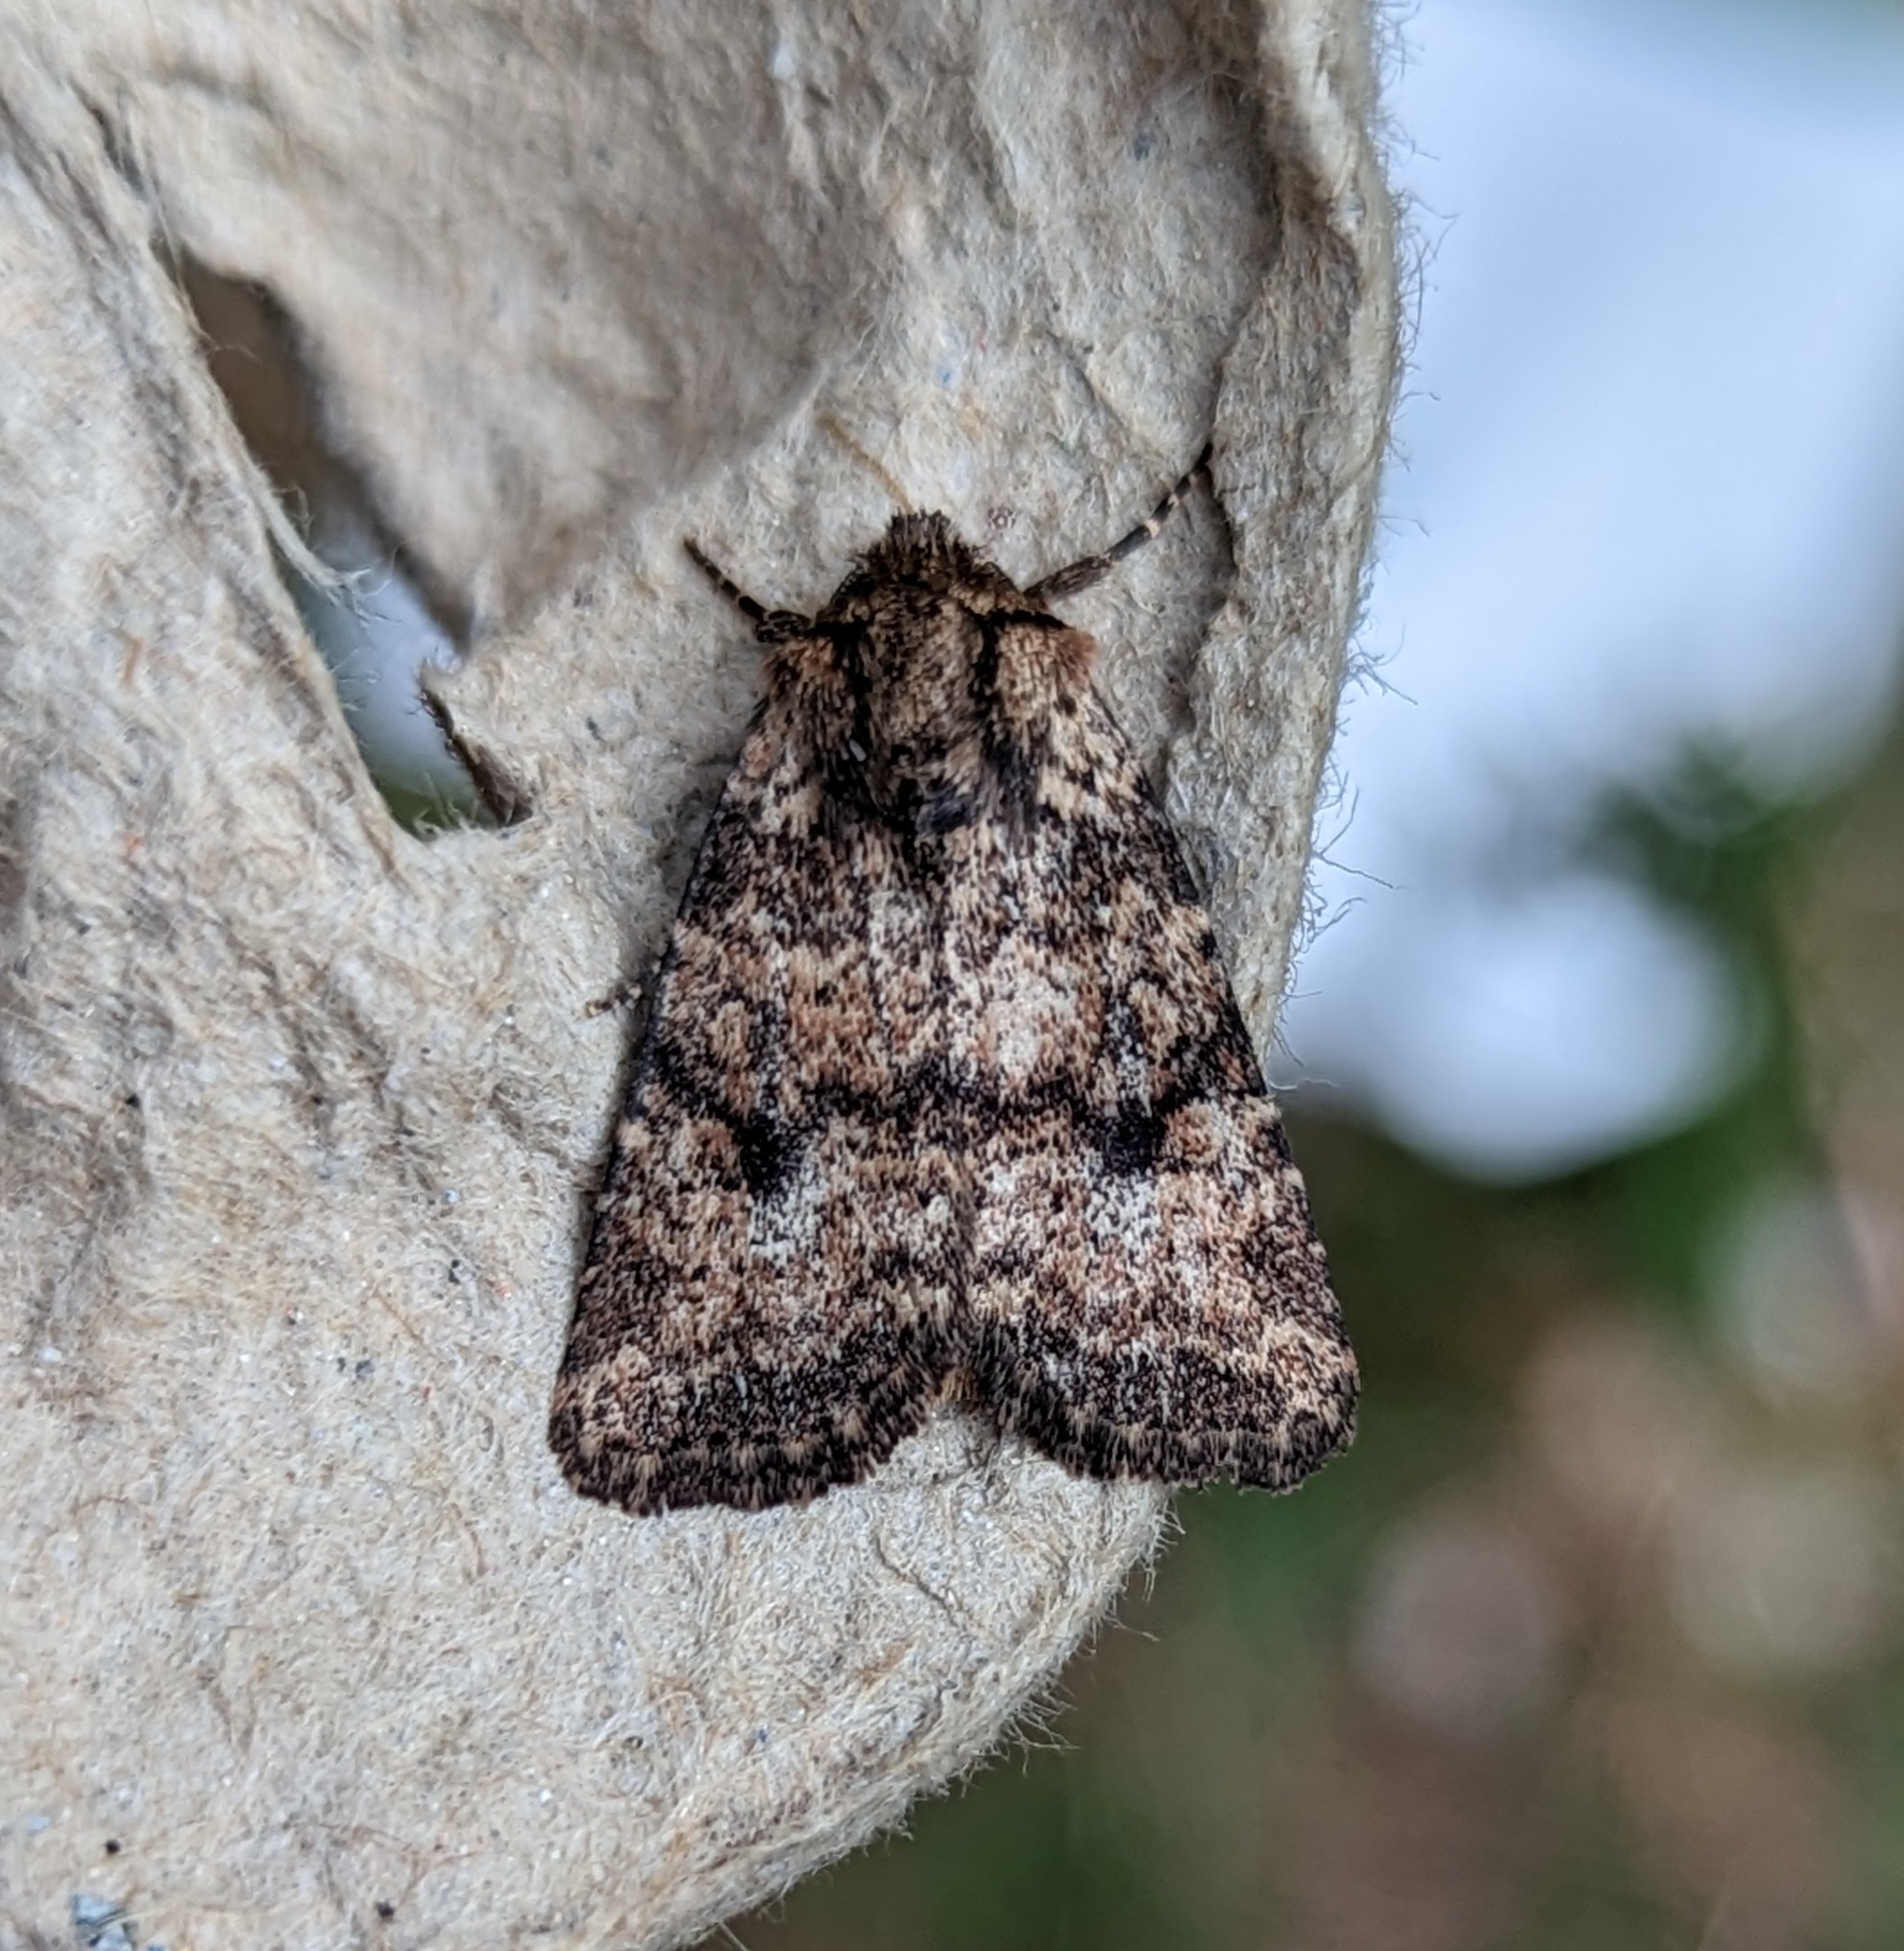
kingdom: Animalia
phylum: Arthropoda
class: Insecta
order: Lepidoptera
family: Noctuidae
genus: Homorthodes
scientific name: Homorthodes hanhami
